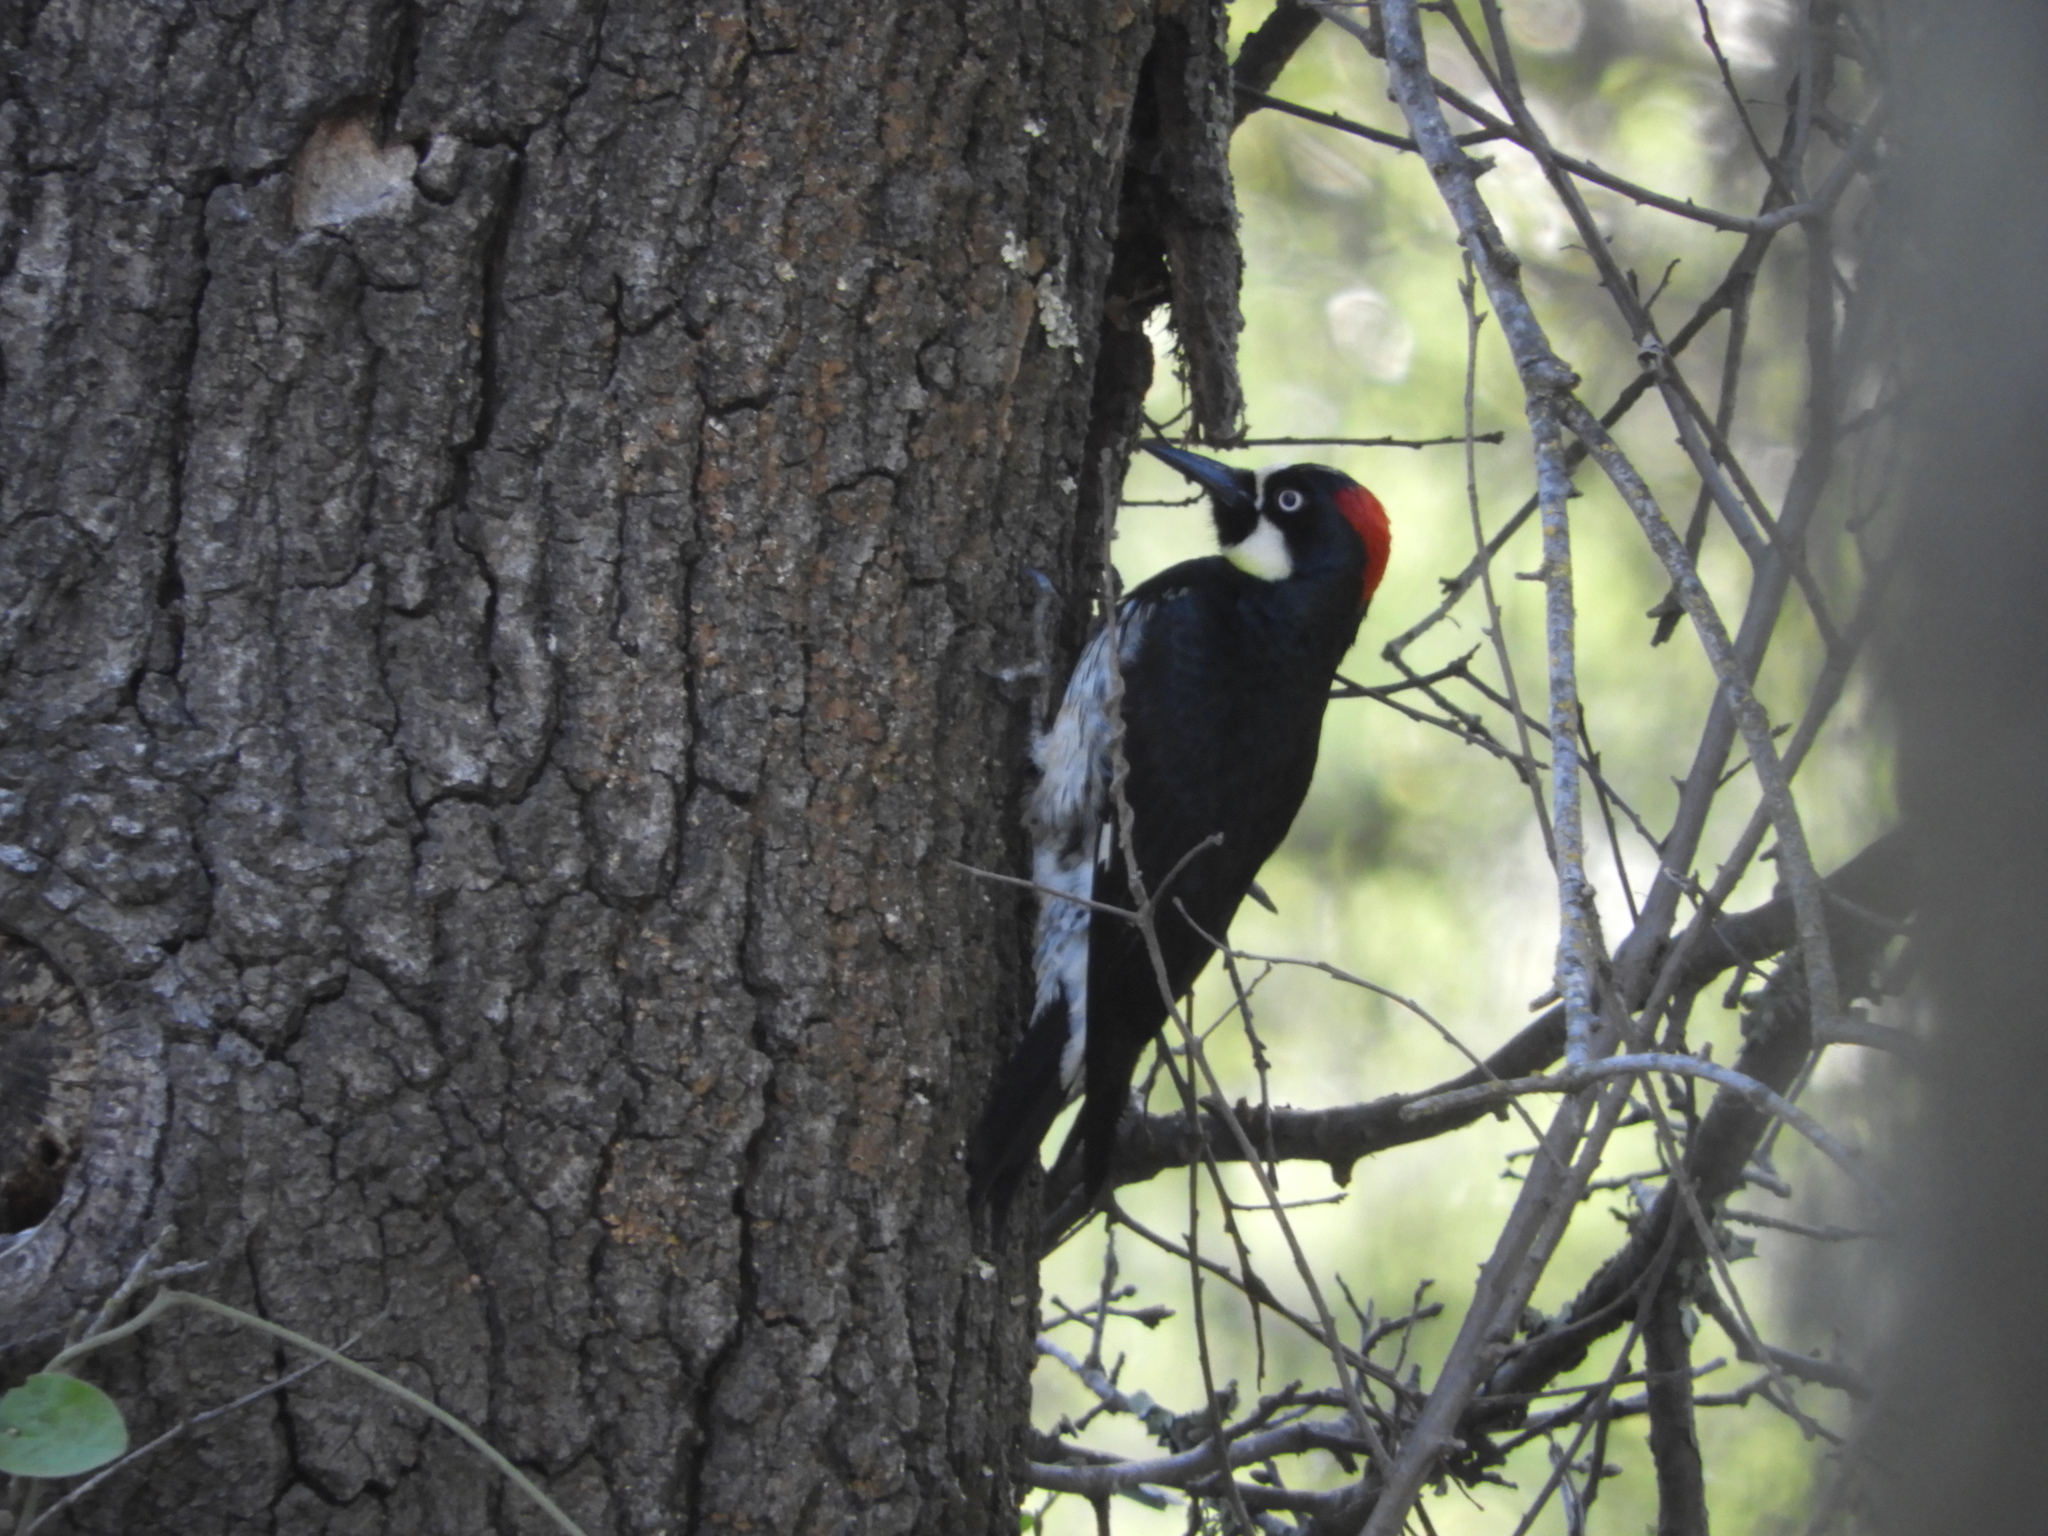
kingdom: Animalia
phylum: Chordata
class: Aves
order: Piciformes
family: Picidae
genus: Melanerpes
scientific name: Melanerpes formicivorus
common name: Acorn woodpecker
